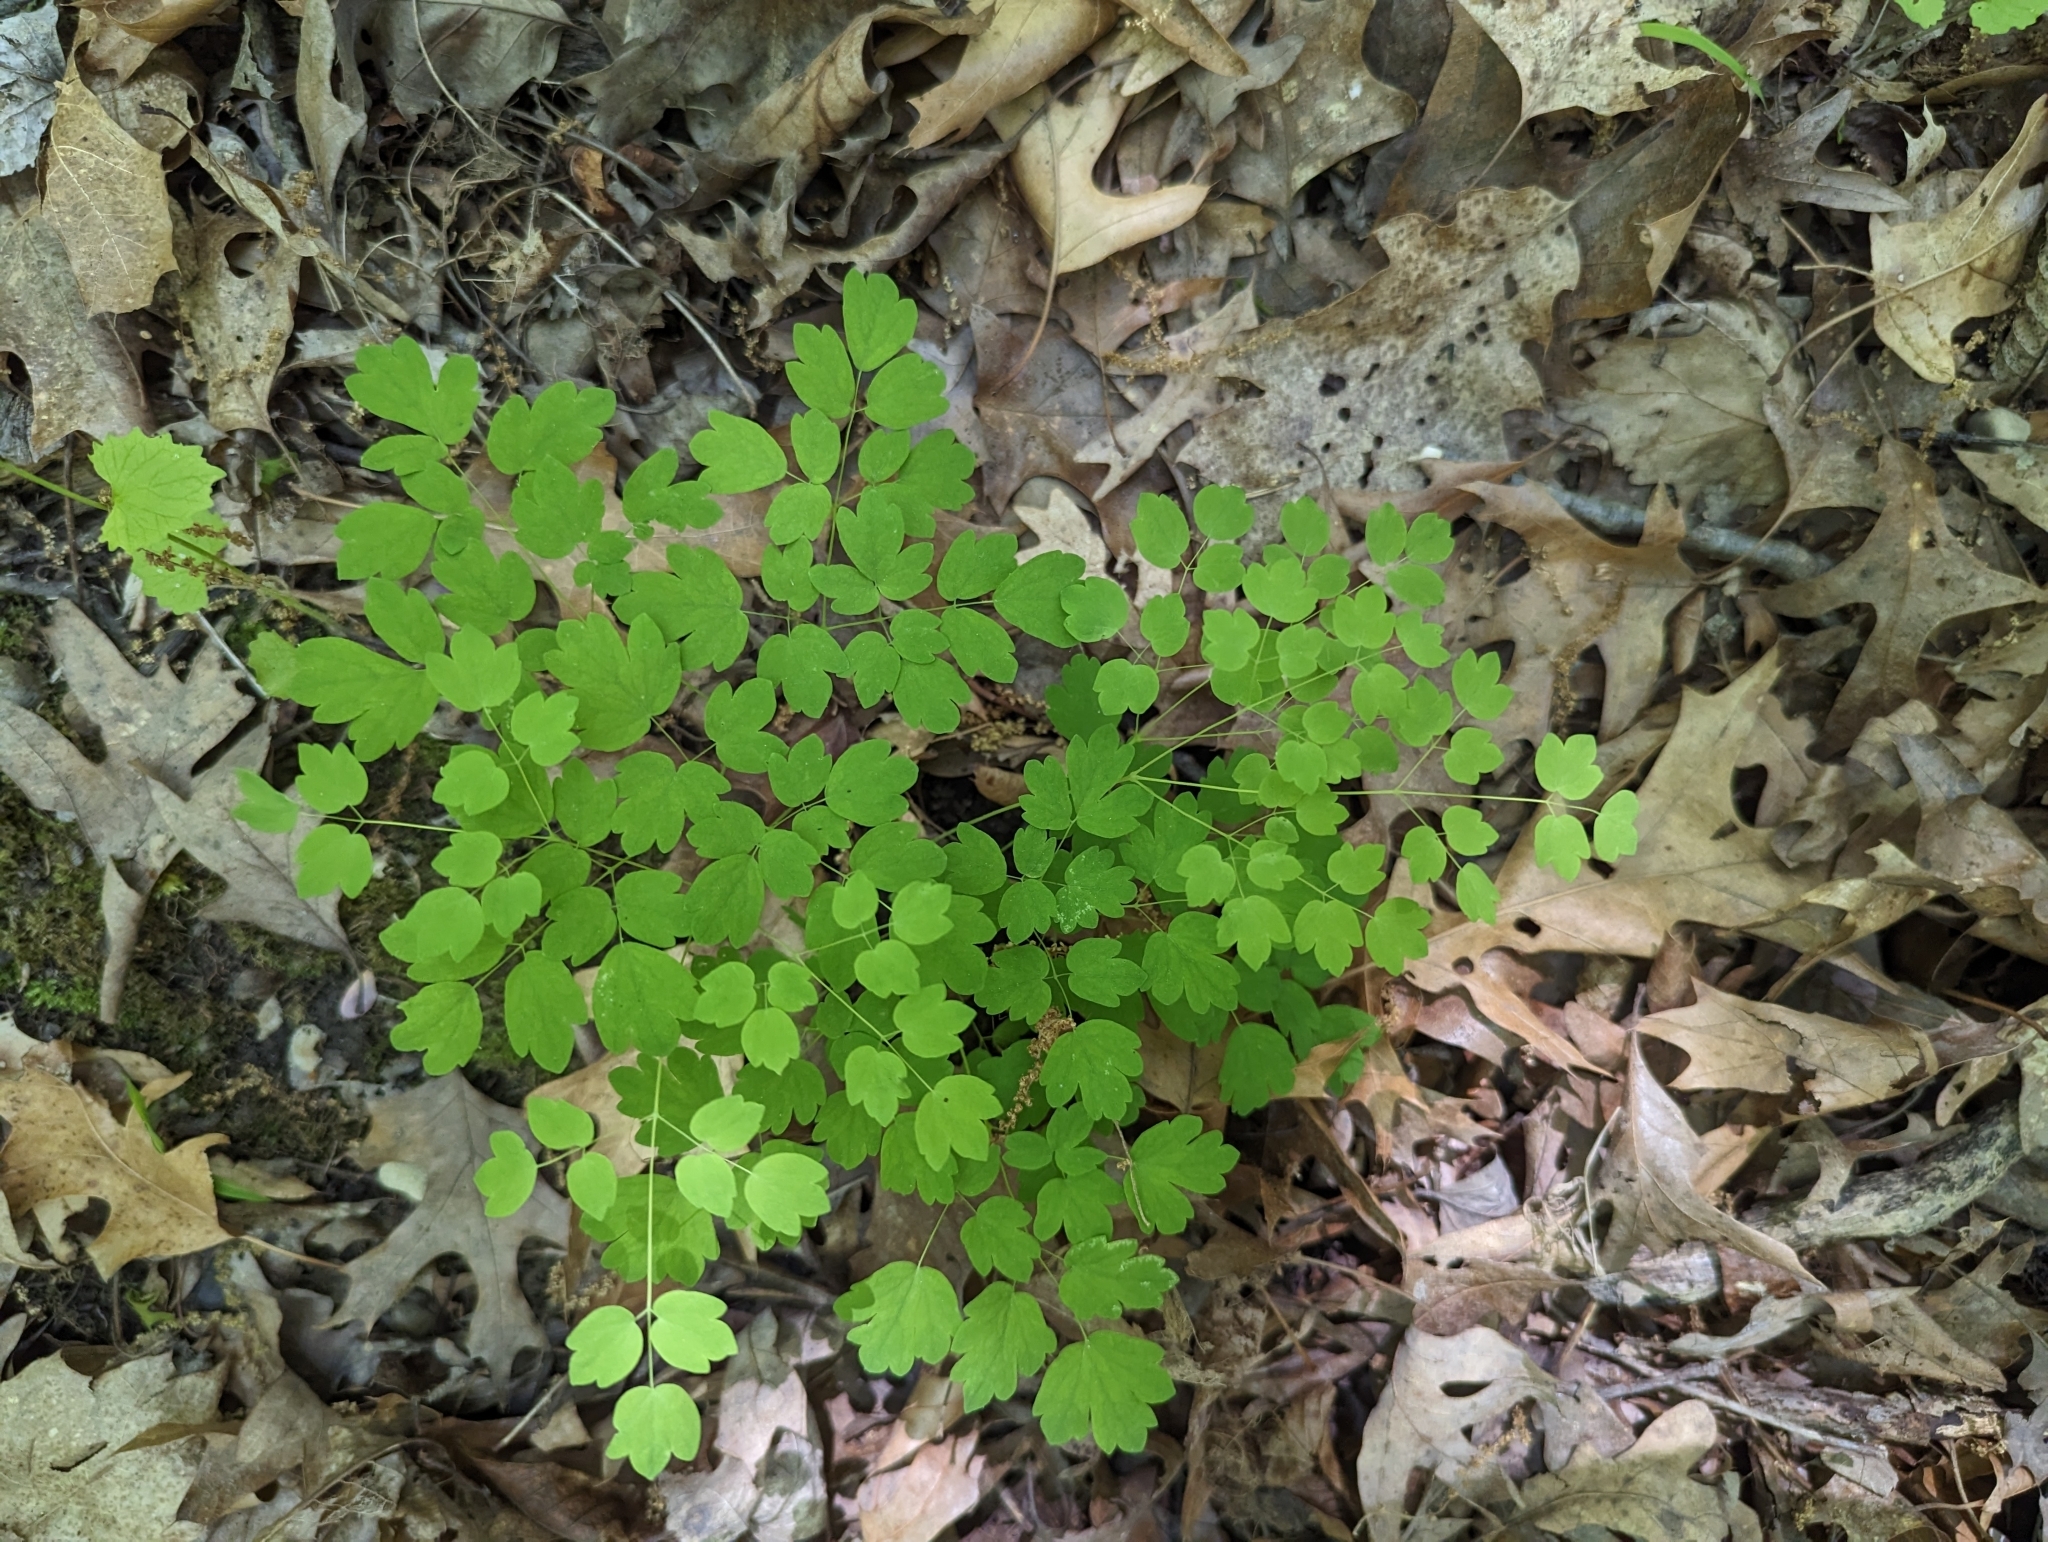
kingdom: Plantae
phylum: Tracheophyta
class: Magnoliopsida
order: Ranunculales
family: Ranunculaceae
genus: Thalictrum
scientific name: Thalictrum dioicum
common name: Early meadow-rue
